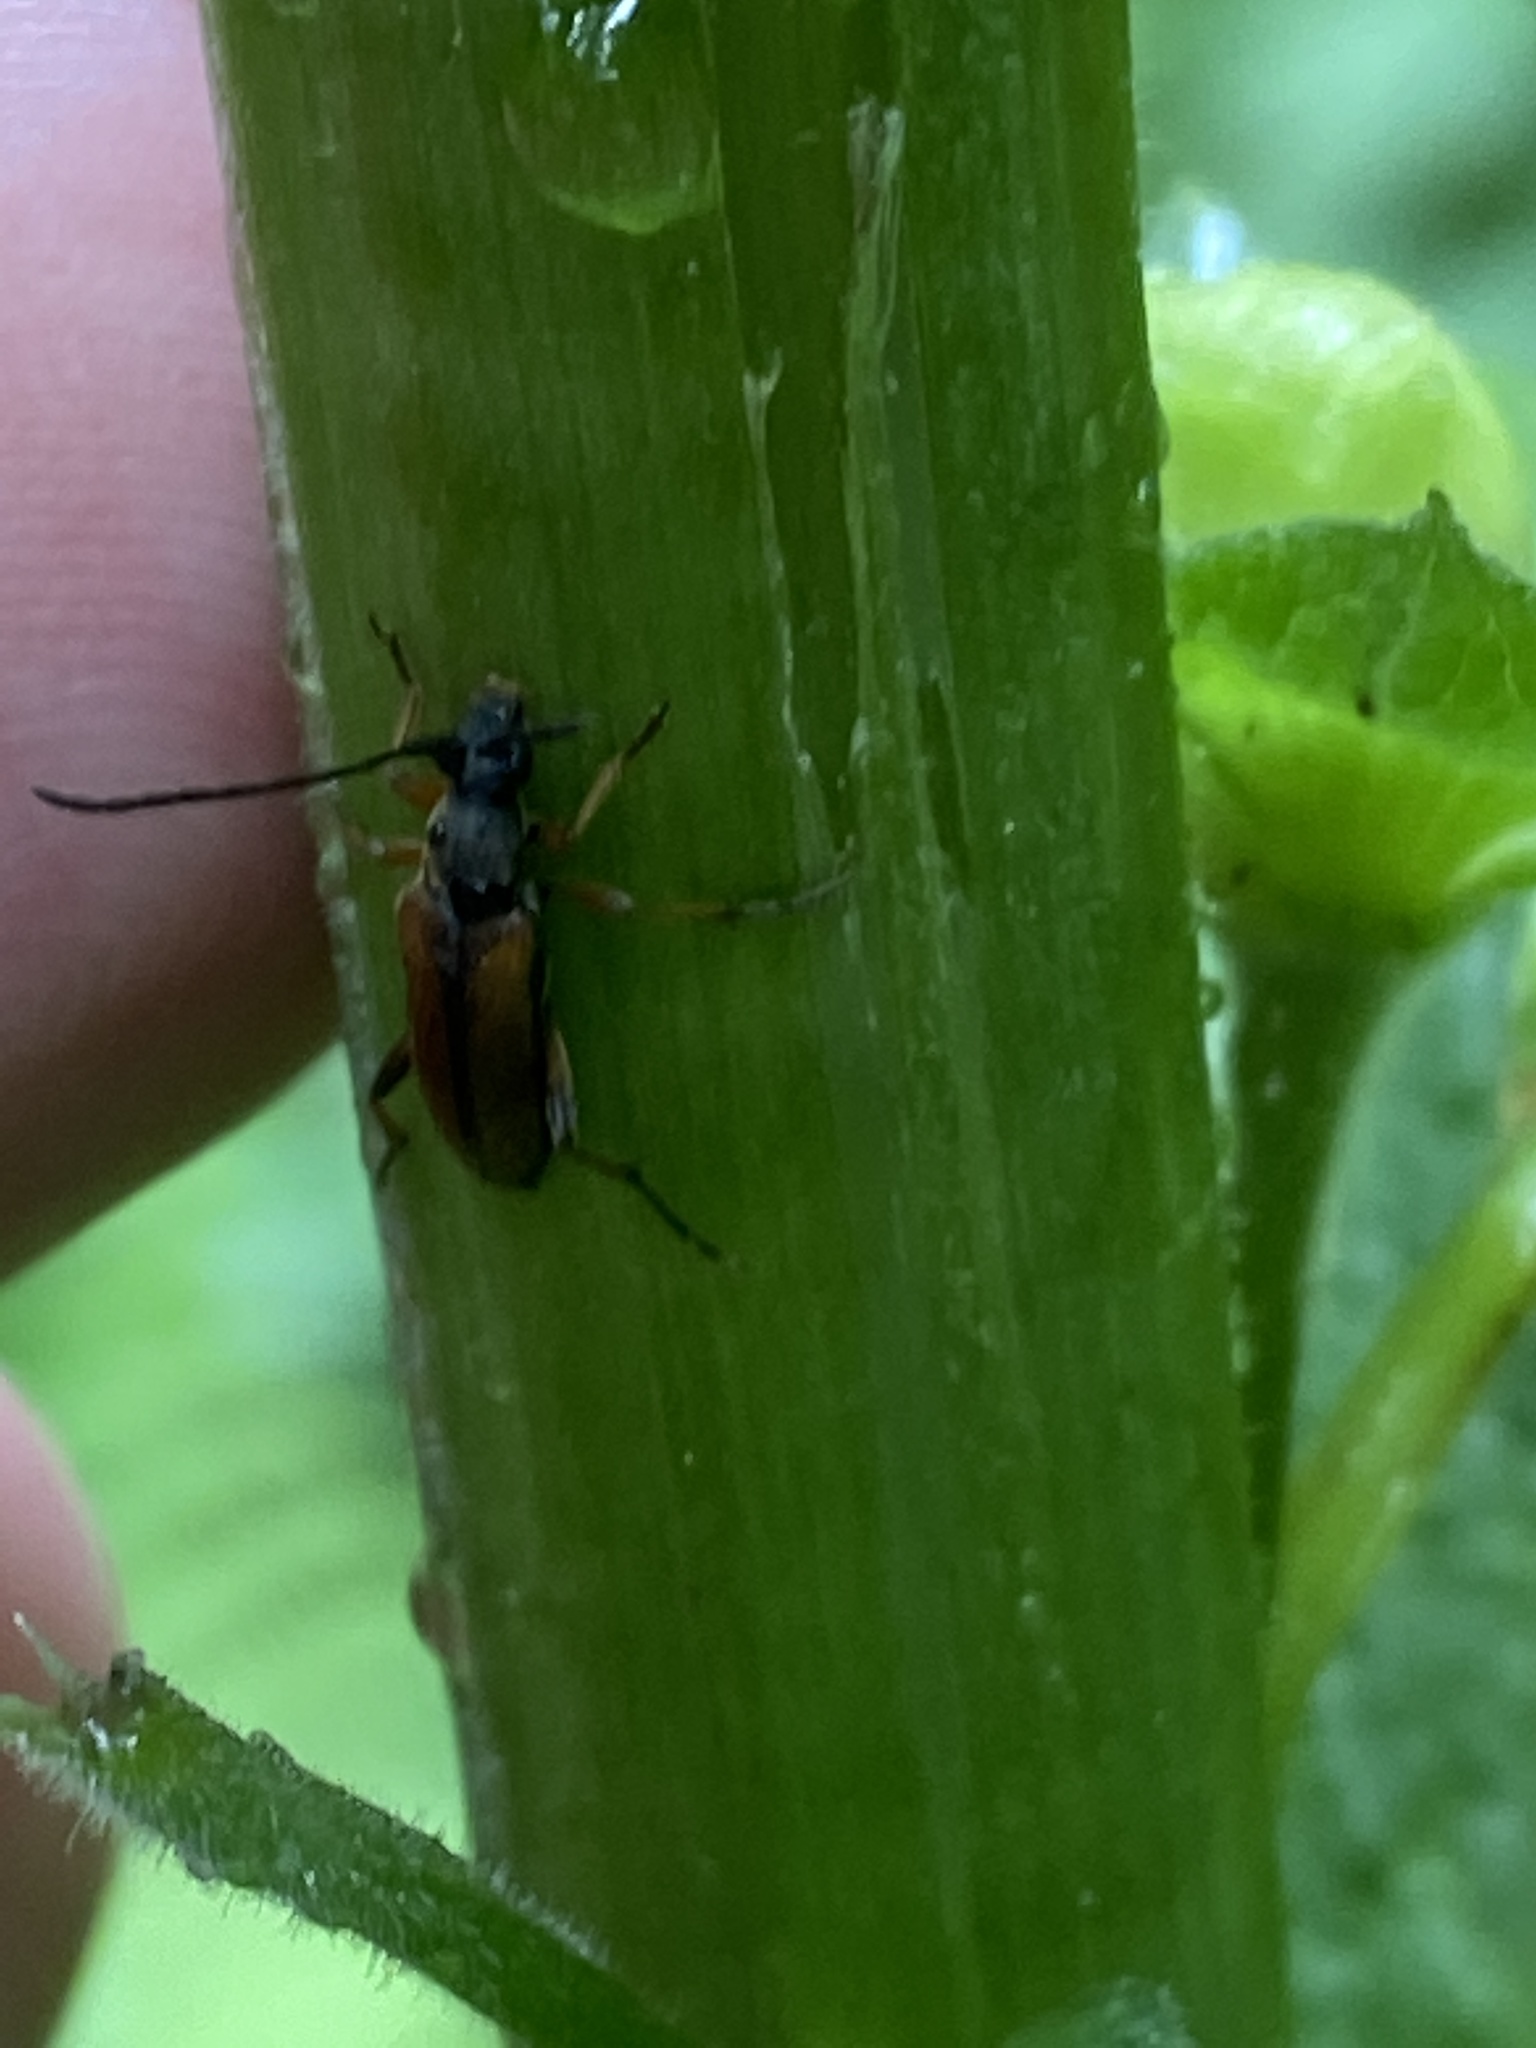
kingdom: Animalia
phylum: Arthropoda
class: Insecta
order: Coleoptera
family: Cerambycidae
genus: Alosterna
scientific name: Alosterna tabacicolor
